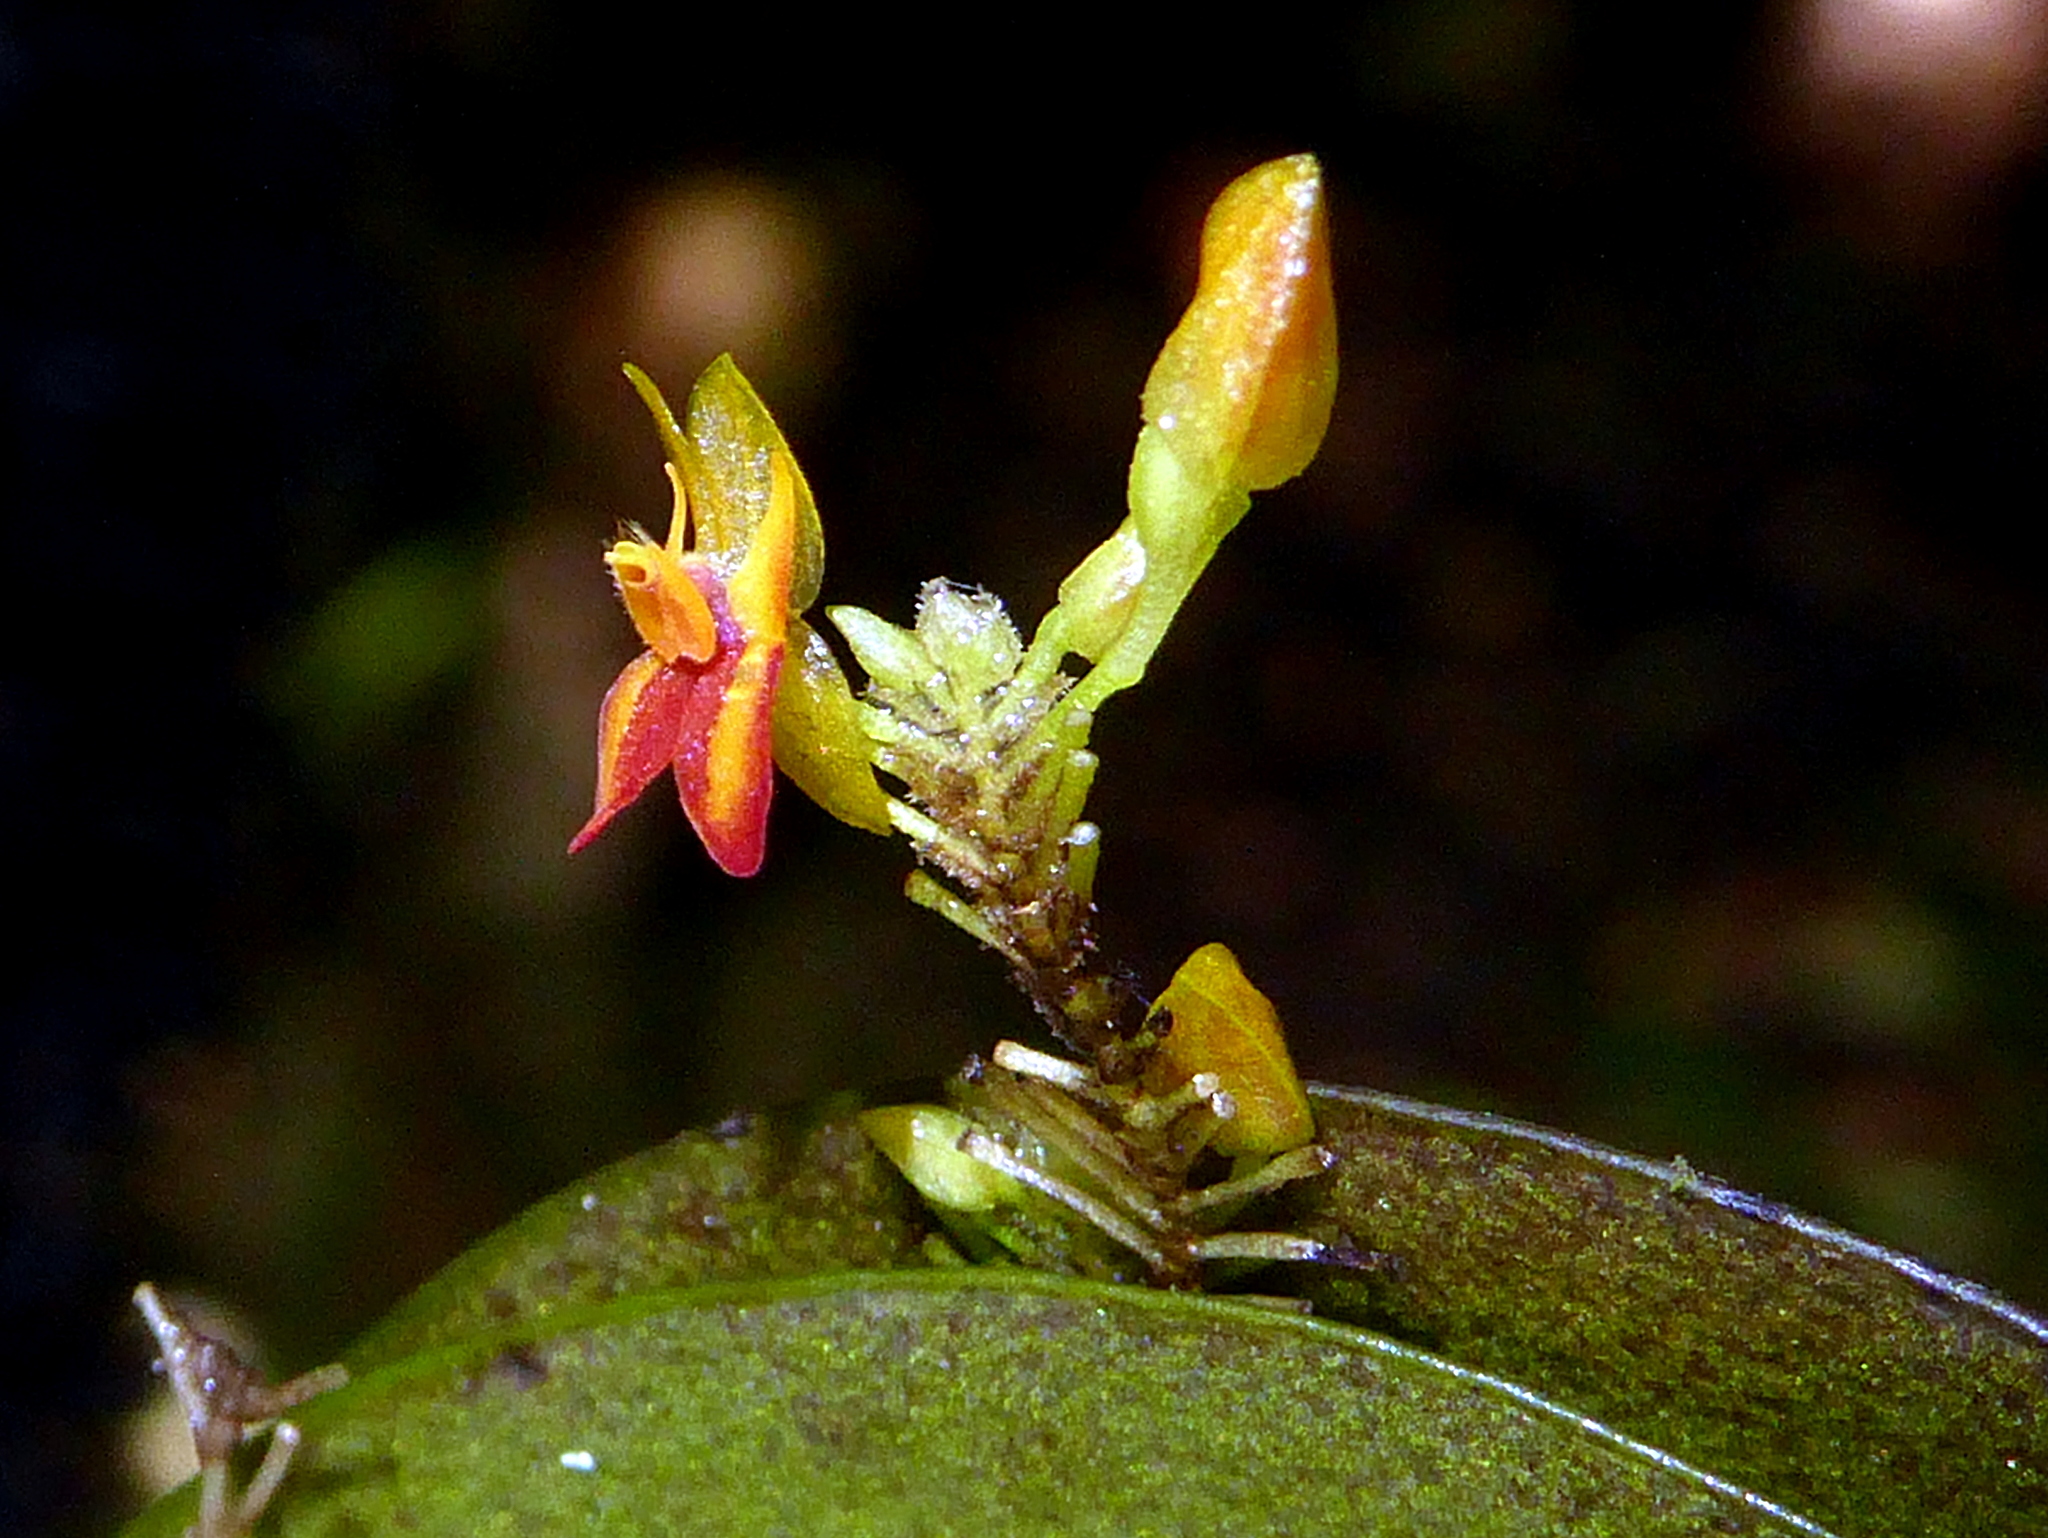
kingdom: Plantae
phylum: Tracheophyta
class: Liliopsida
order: Asparagales
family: Orchidaceae
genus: Lepanthes
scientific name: Lepanthes scopula
